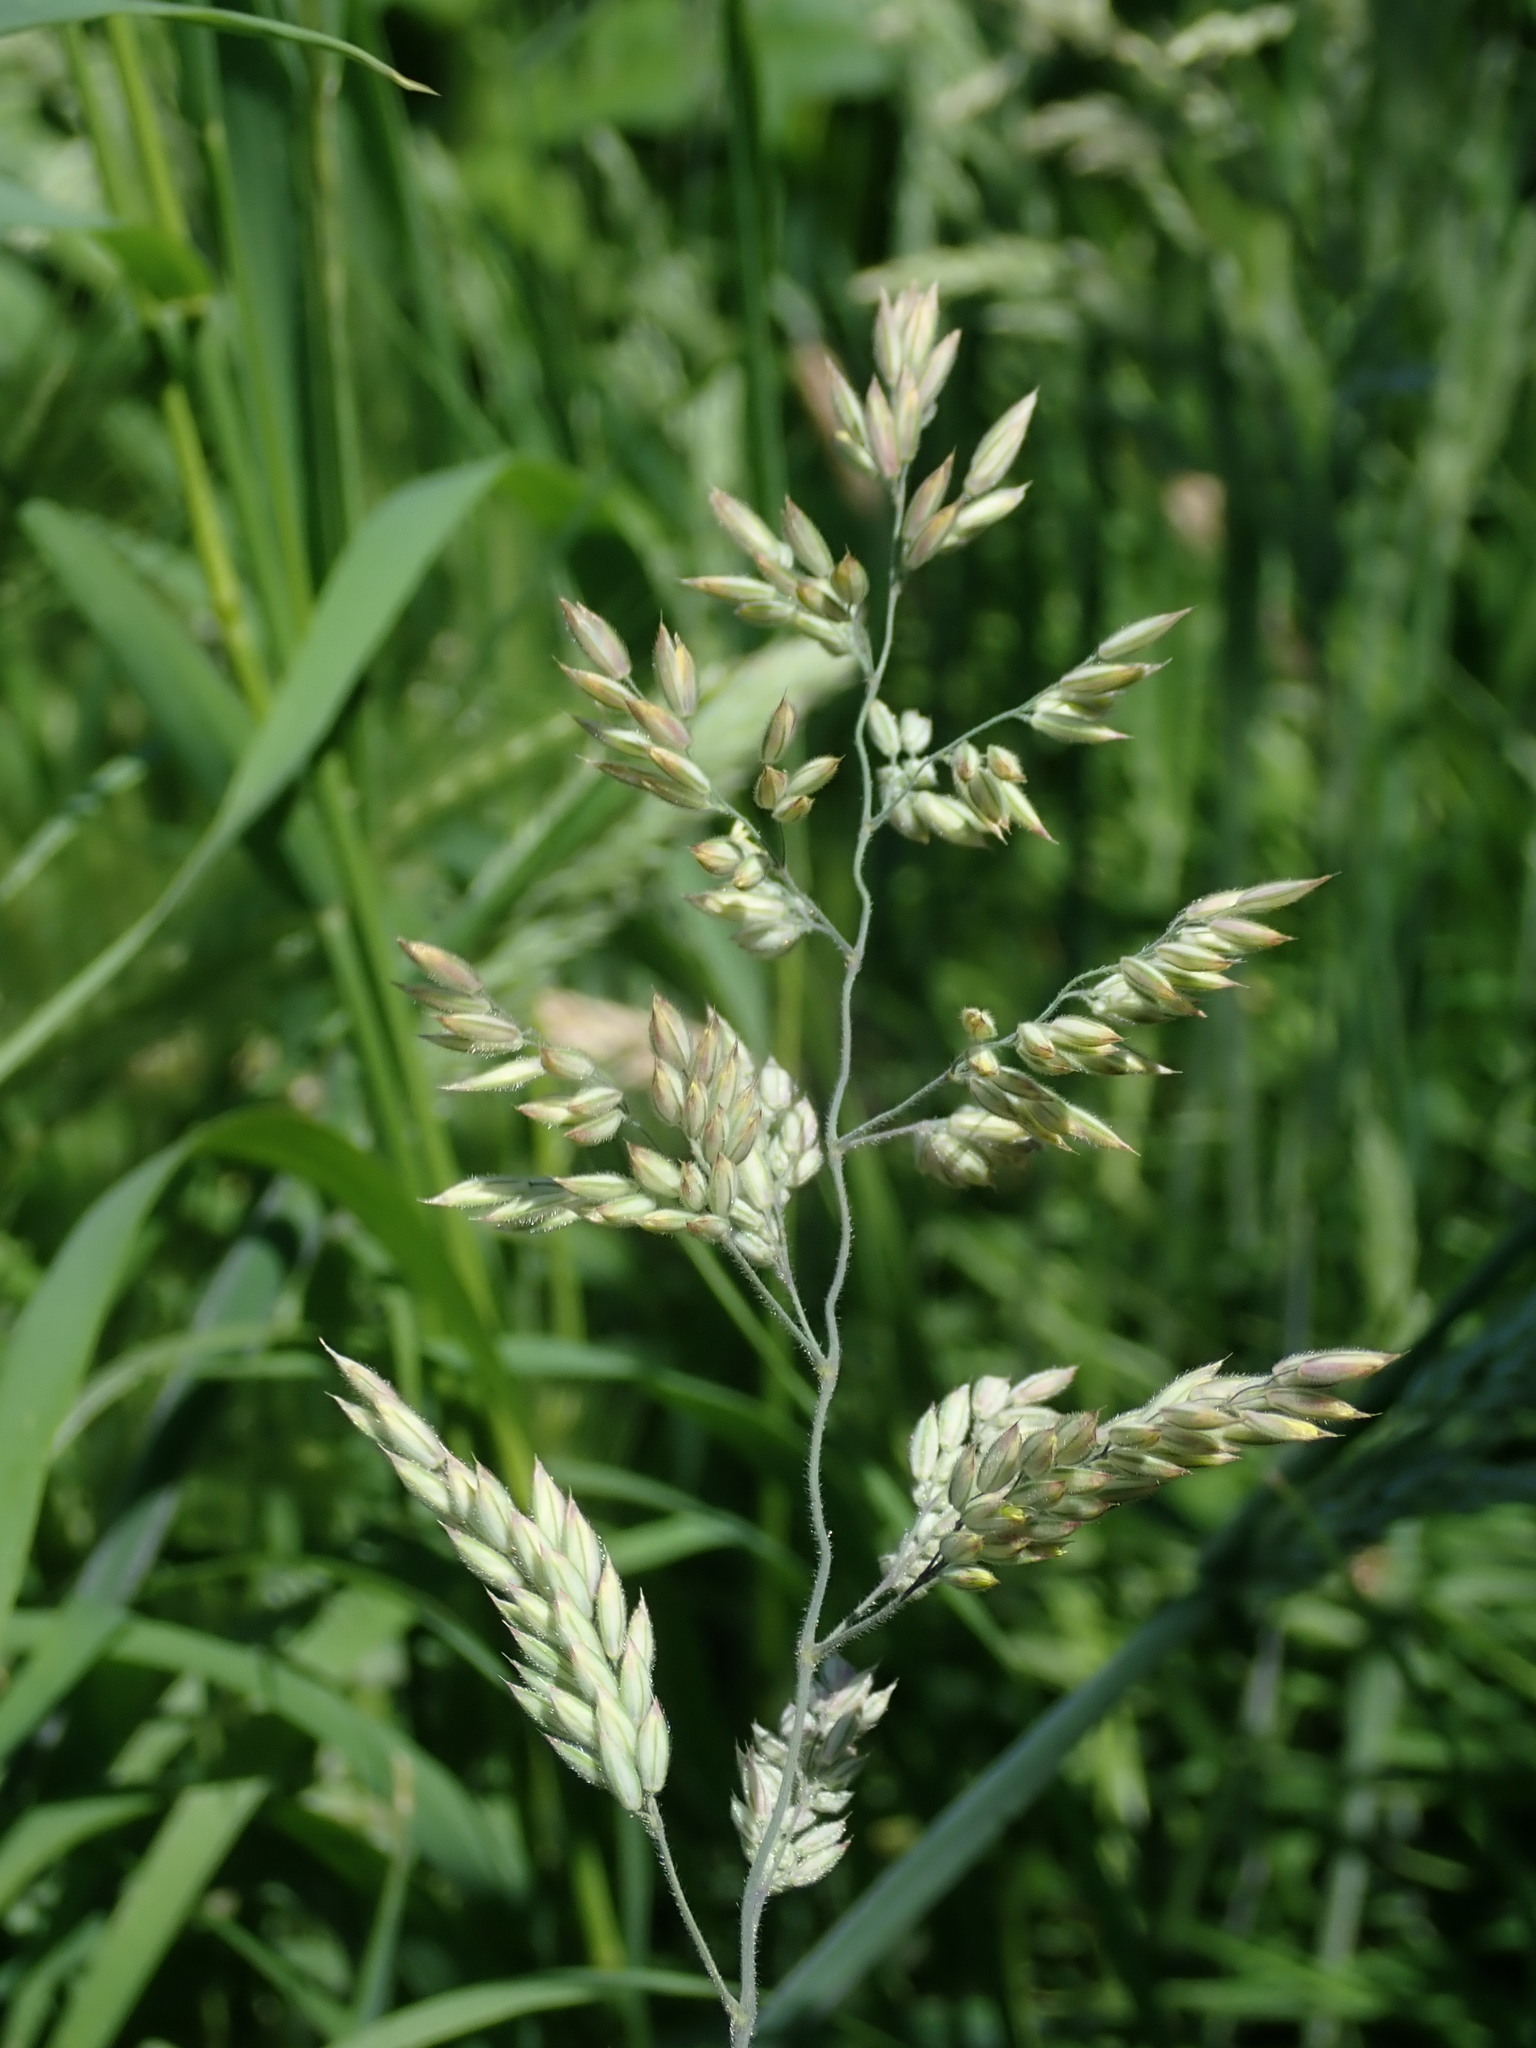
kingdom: Plantae
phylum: Tracheophyta
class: Liliopsida
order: Poales
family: Poaceae
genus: Holcus
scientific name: Holcus lanatus
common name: Yorkshire-fog
